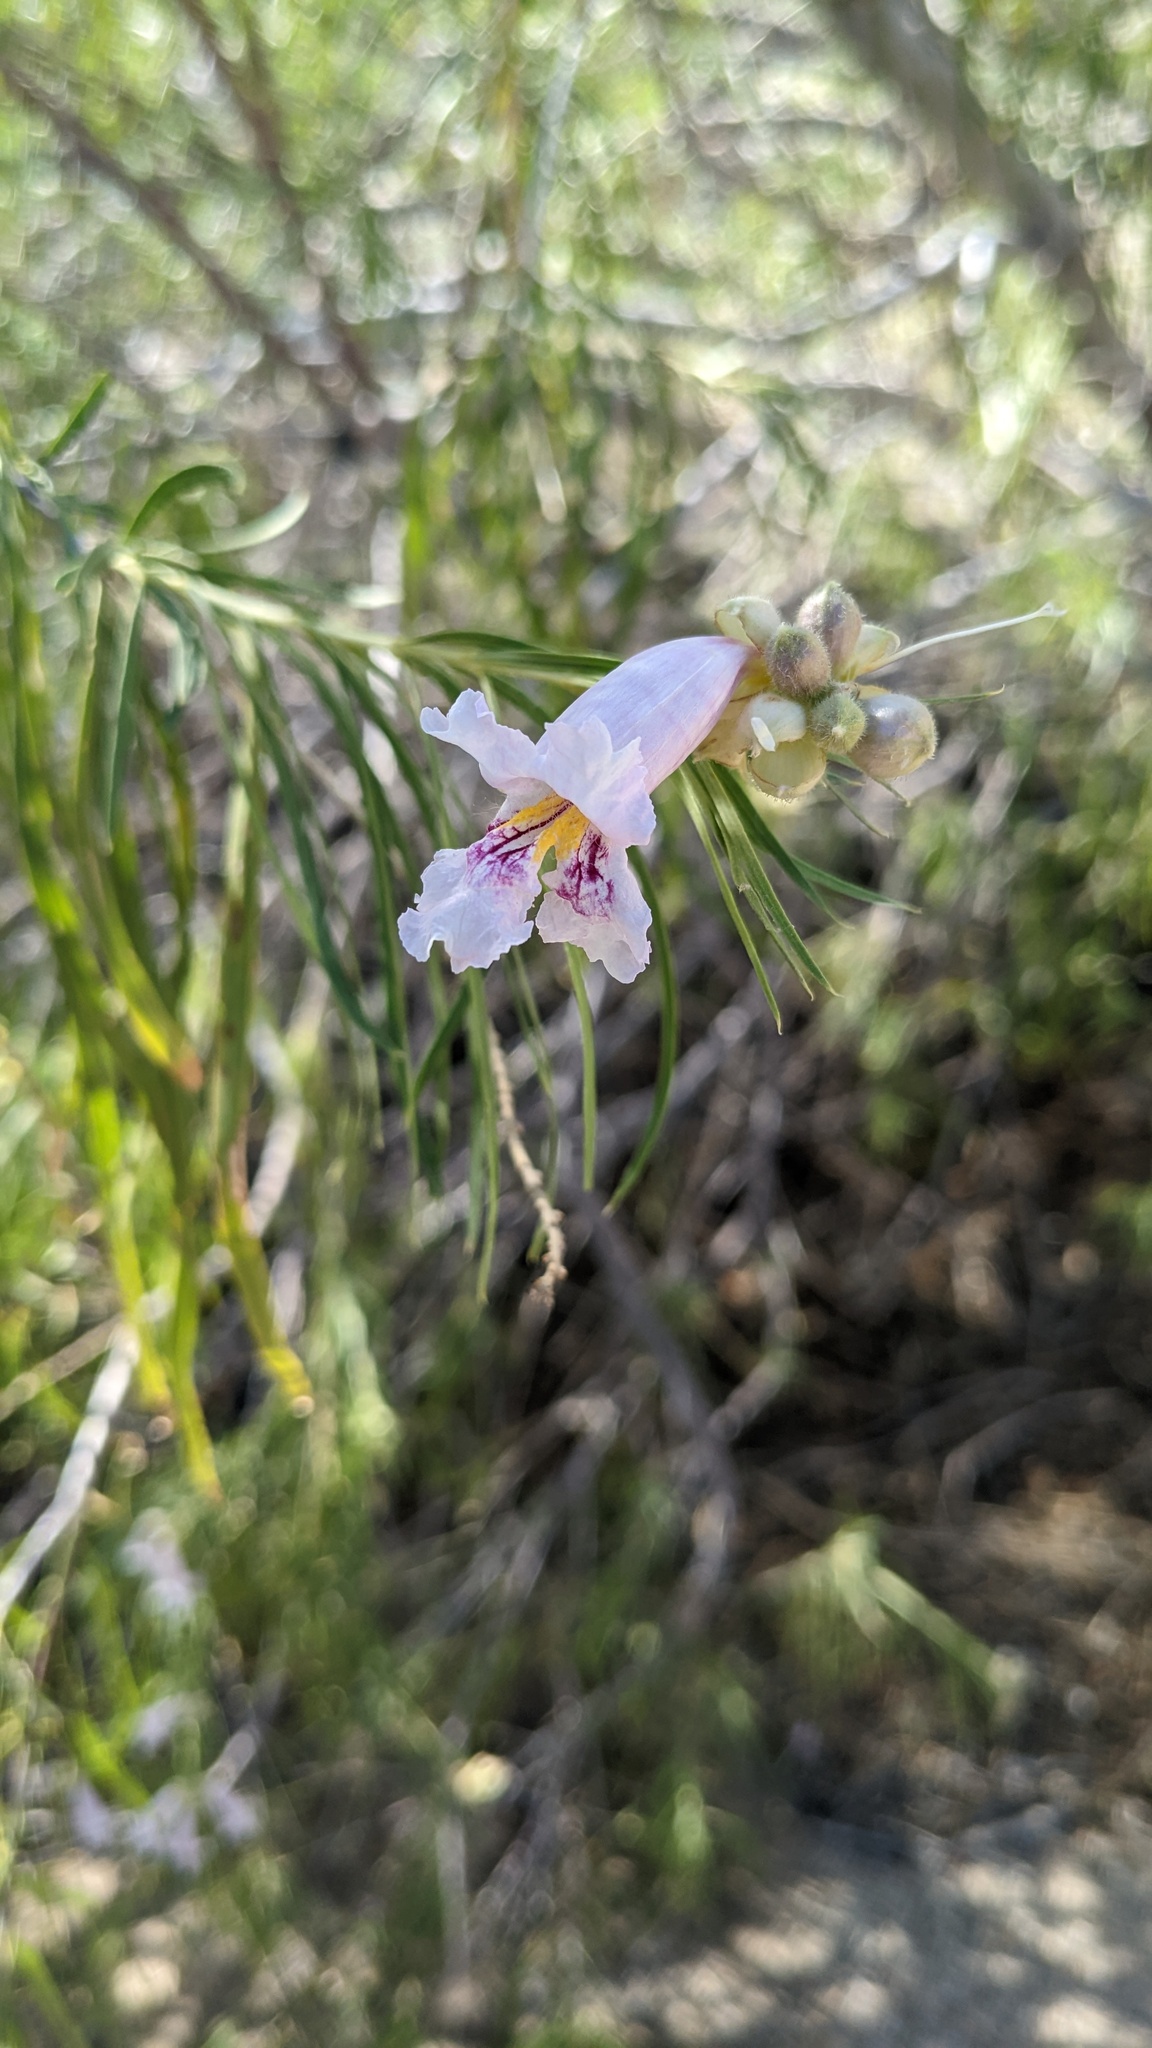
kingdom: Plantae
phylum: Tracheophyta
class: Magnoliopsida
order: Lamiales
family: Bignoniaceae
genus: Chilopsis
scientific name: Chilopsis linearis
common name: Desert-willow
